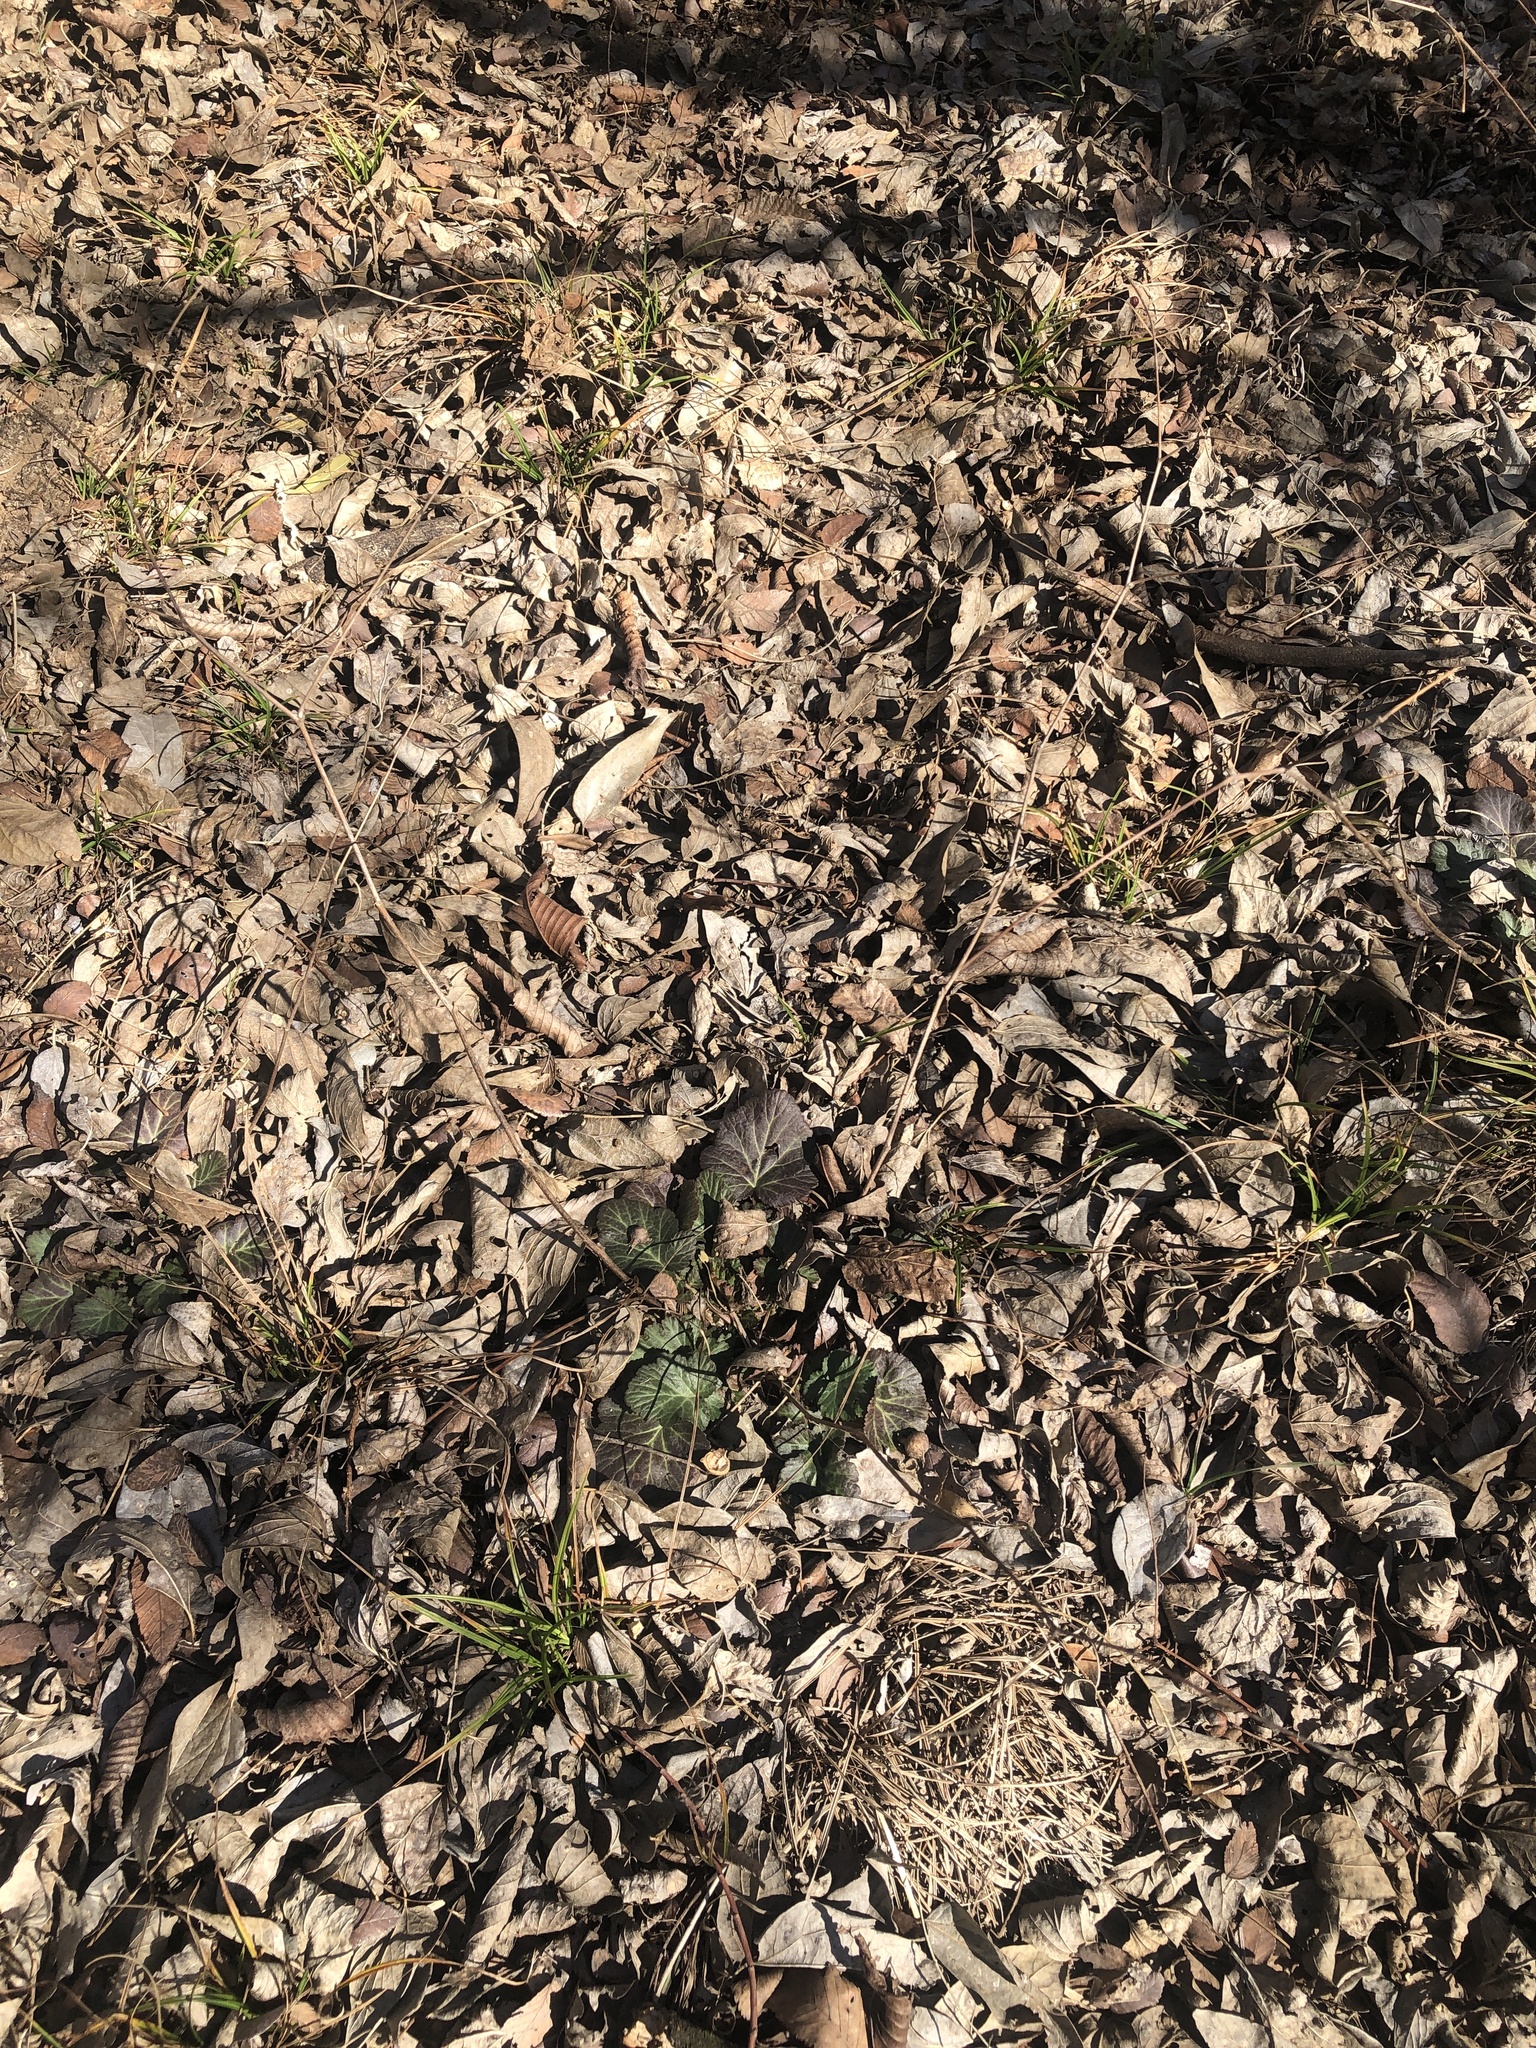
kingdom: Plantae
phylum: Tracheophyta
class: Magnoliopsida
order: Rosales
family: Rosaceae
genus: Geum
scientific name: Geum canadense
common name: White avens
